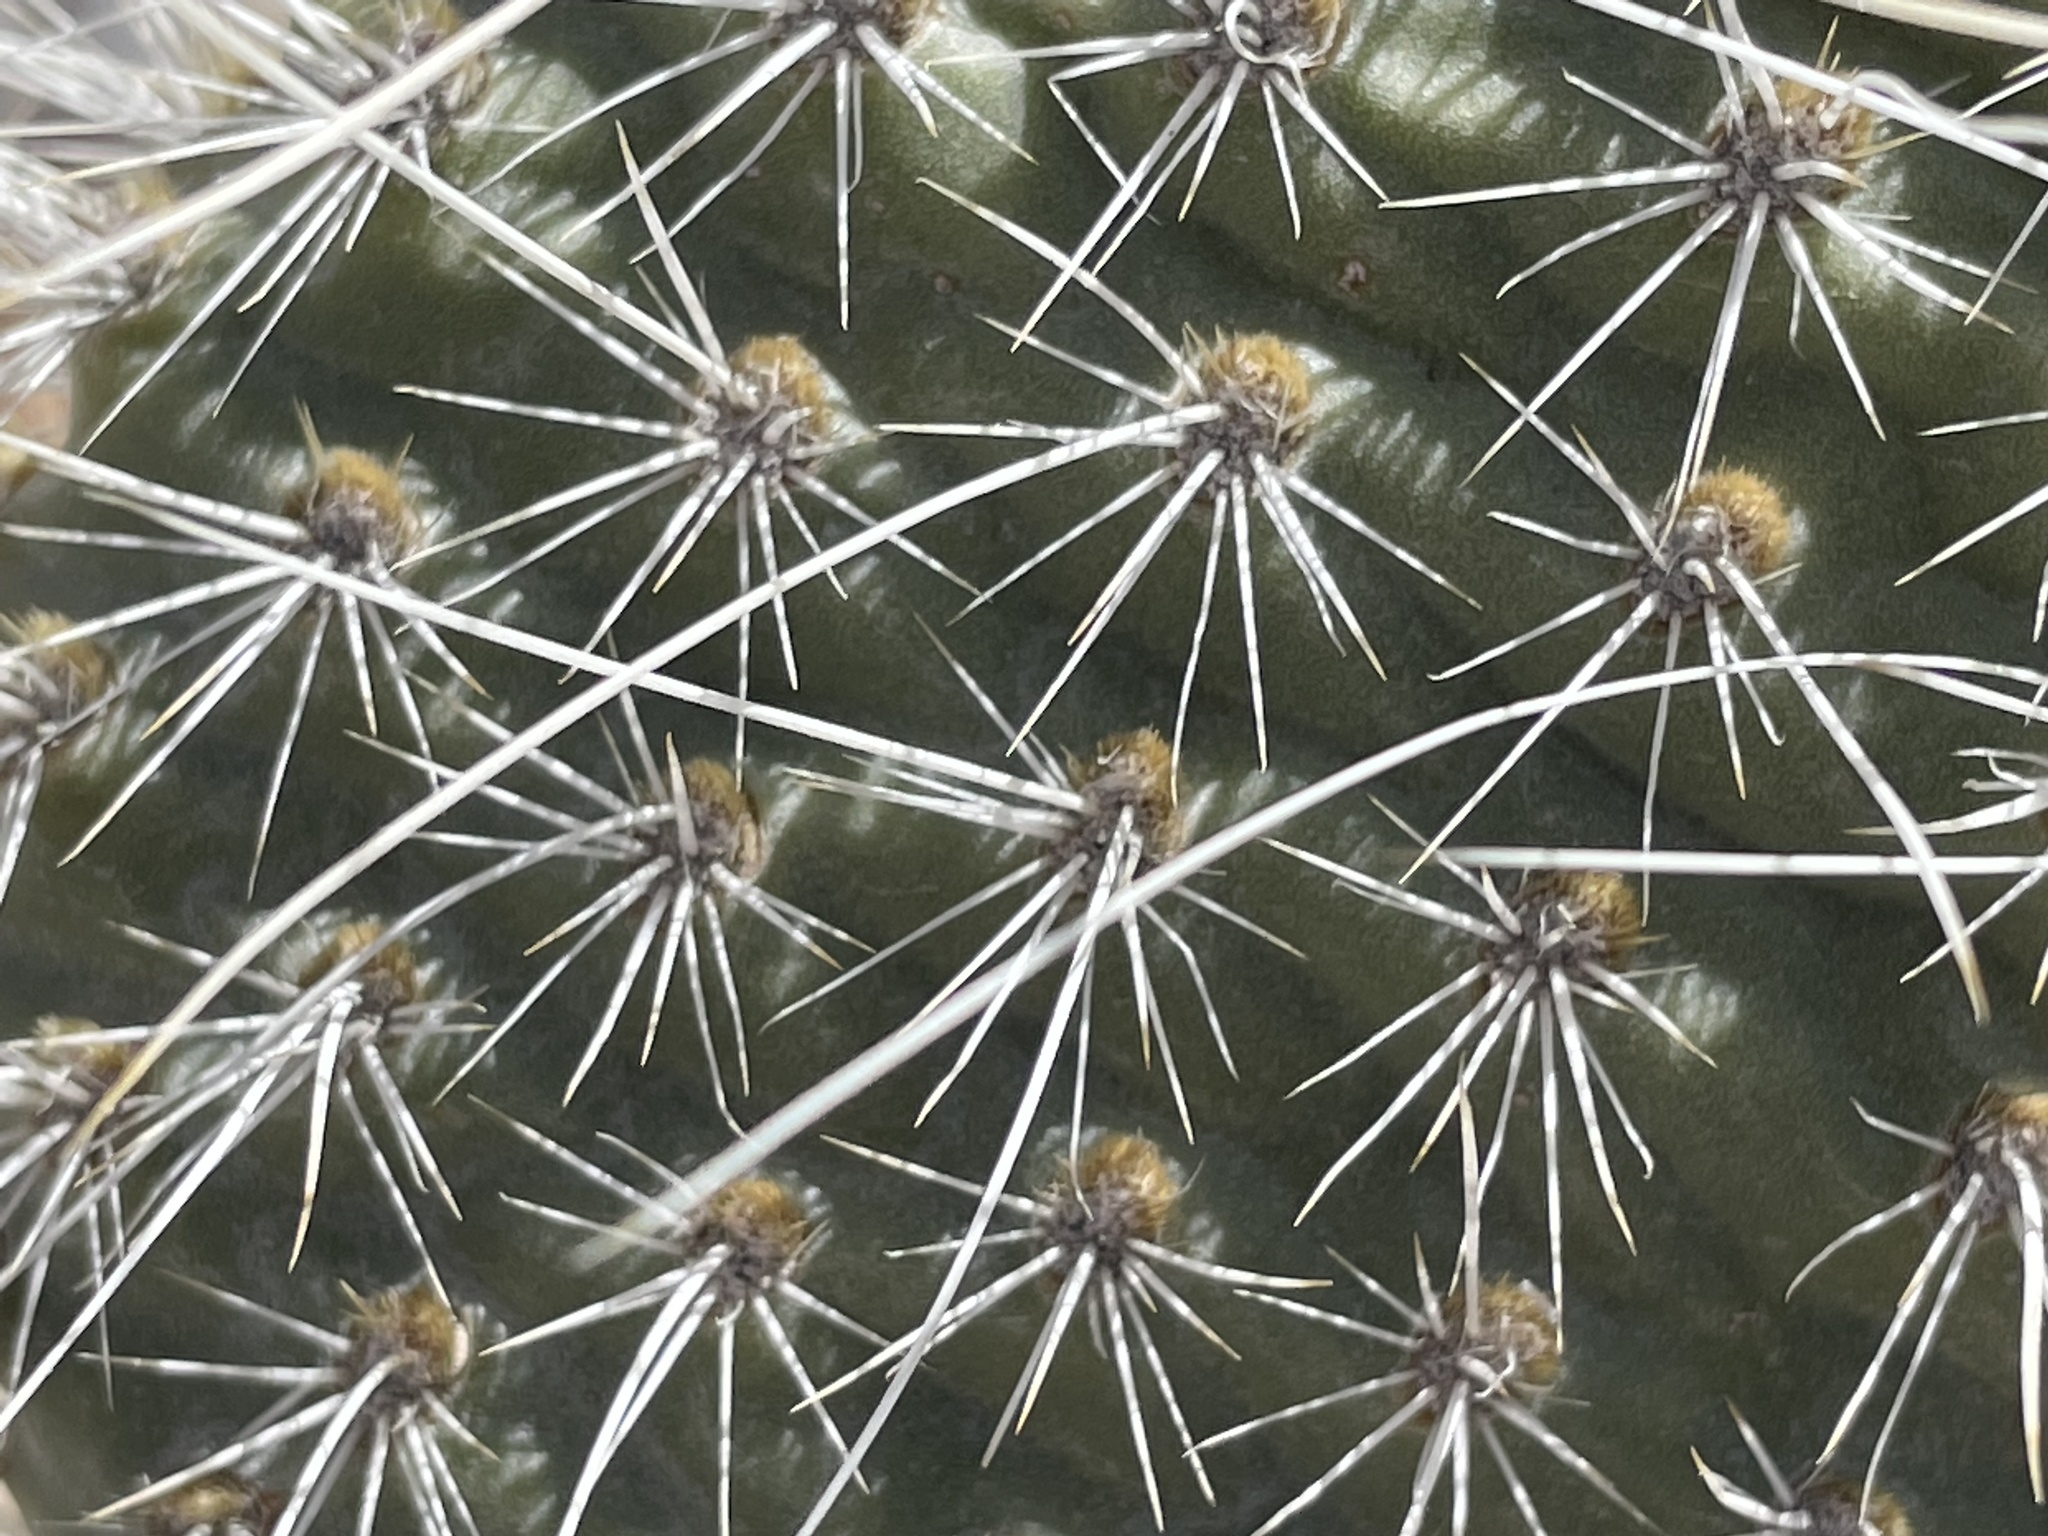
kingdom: Plantae
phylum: Tracheophyta
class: Magnoliopsida
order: Caryophyllales
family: Cactaceae
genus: Opuntia
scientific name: Opuntia polyacantha
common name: Plains prickly-pear
